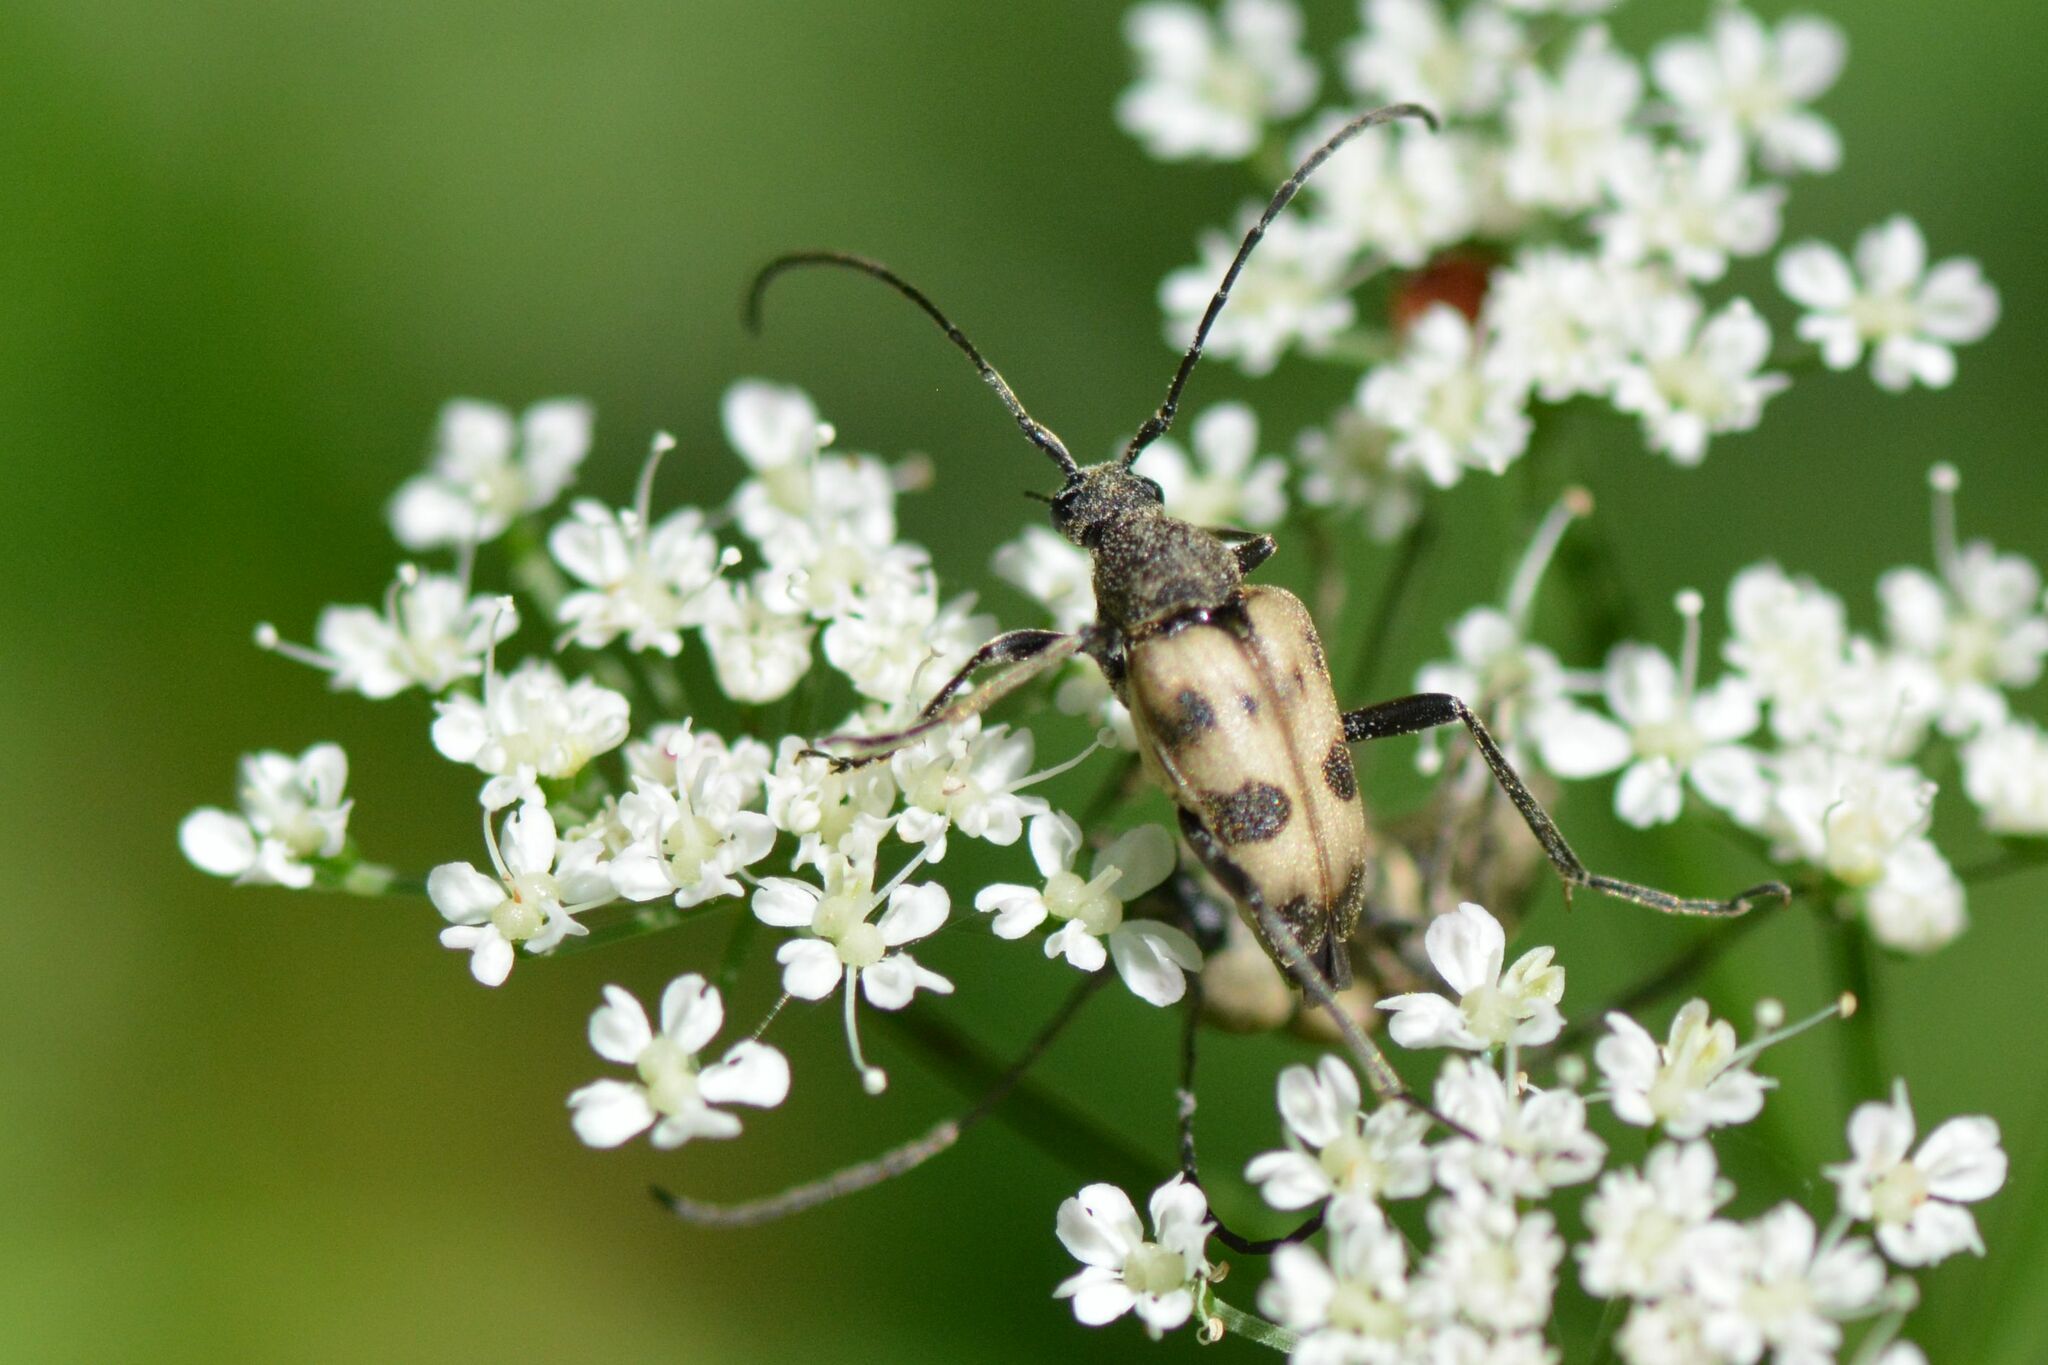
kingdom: Animalia
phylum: Arthropoda
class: Insecta
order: Coleoptera
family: Cerambycidae
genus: Pachytodes
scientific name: Pachytodes cerambyciformis
